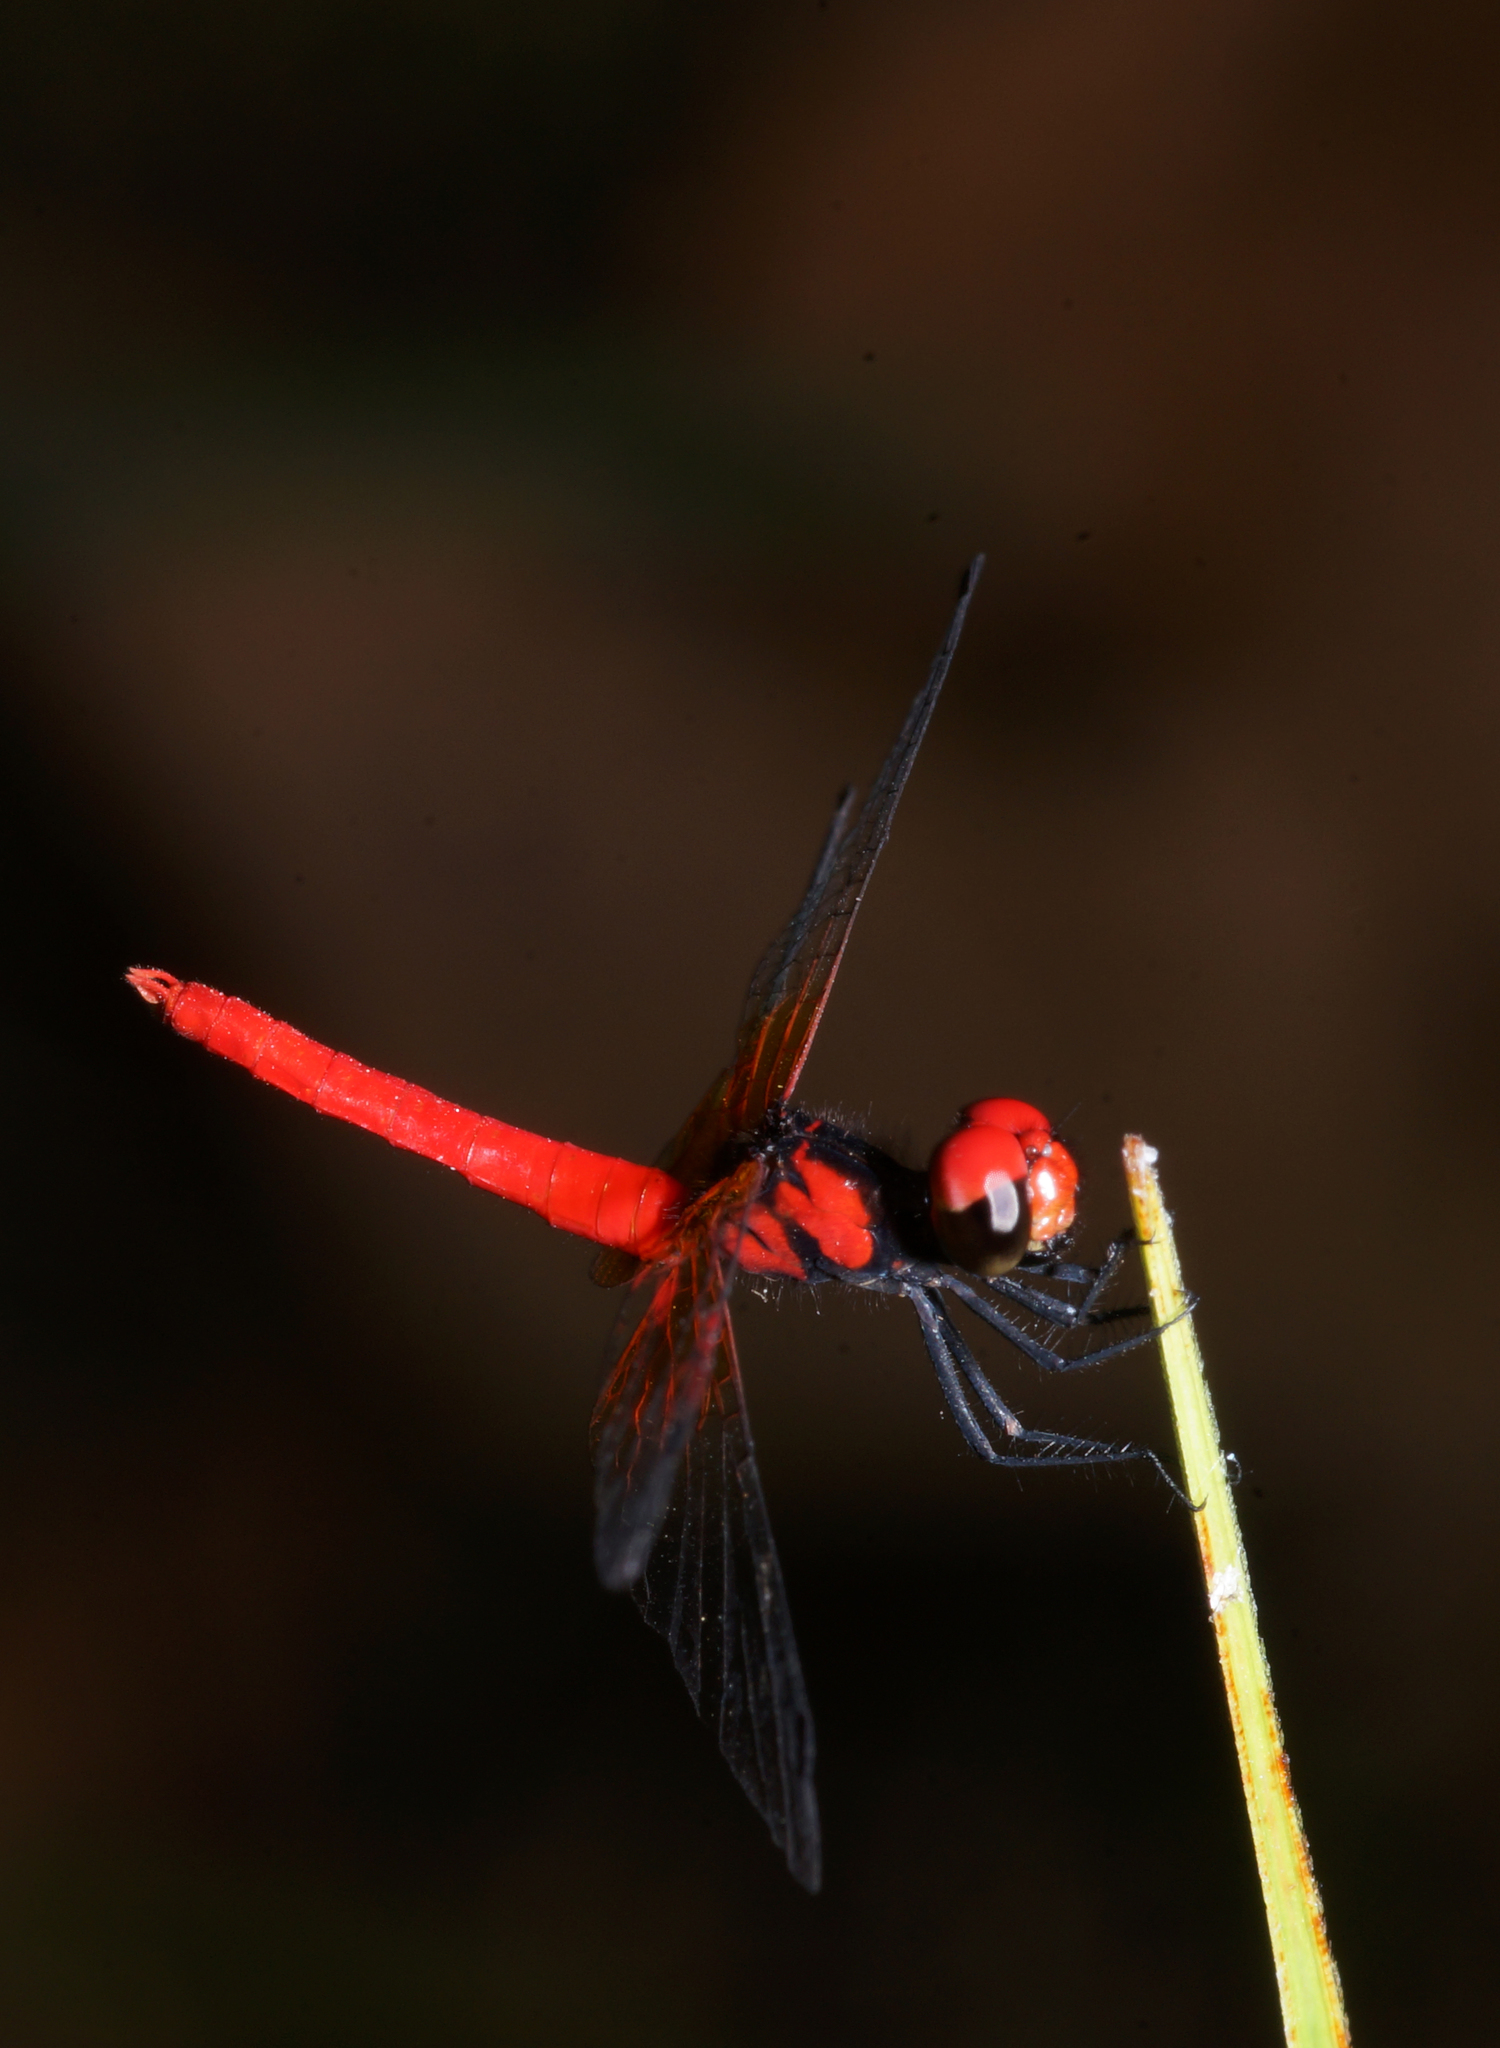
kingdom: Animalia
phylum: Arthropoda
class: Insecta
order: Odonata
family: Libellulidae
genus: Nannophya
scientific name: Nannophya pygmaea
